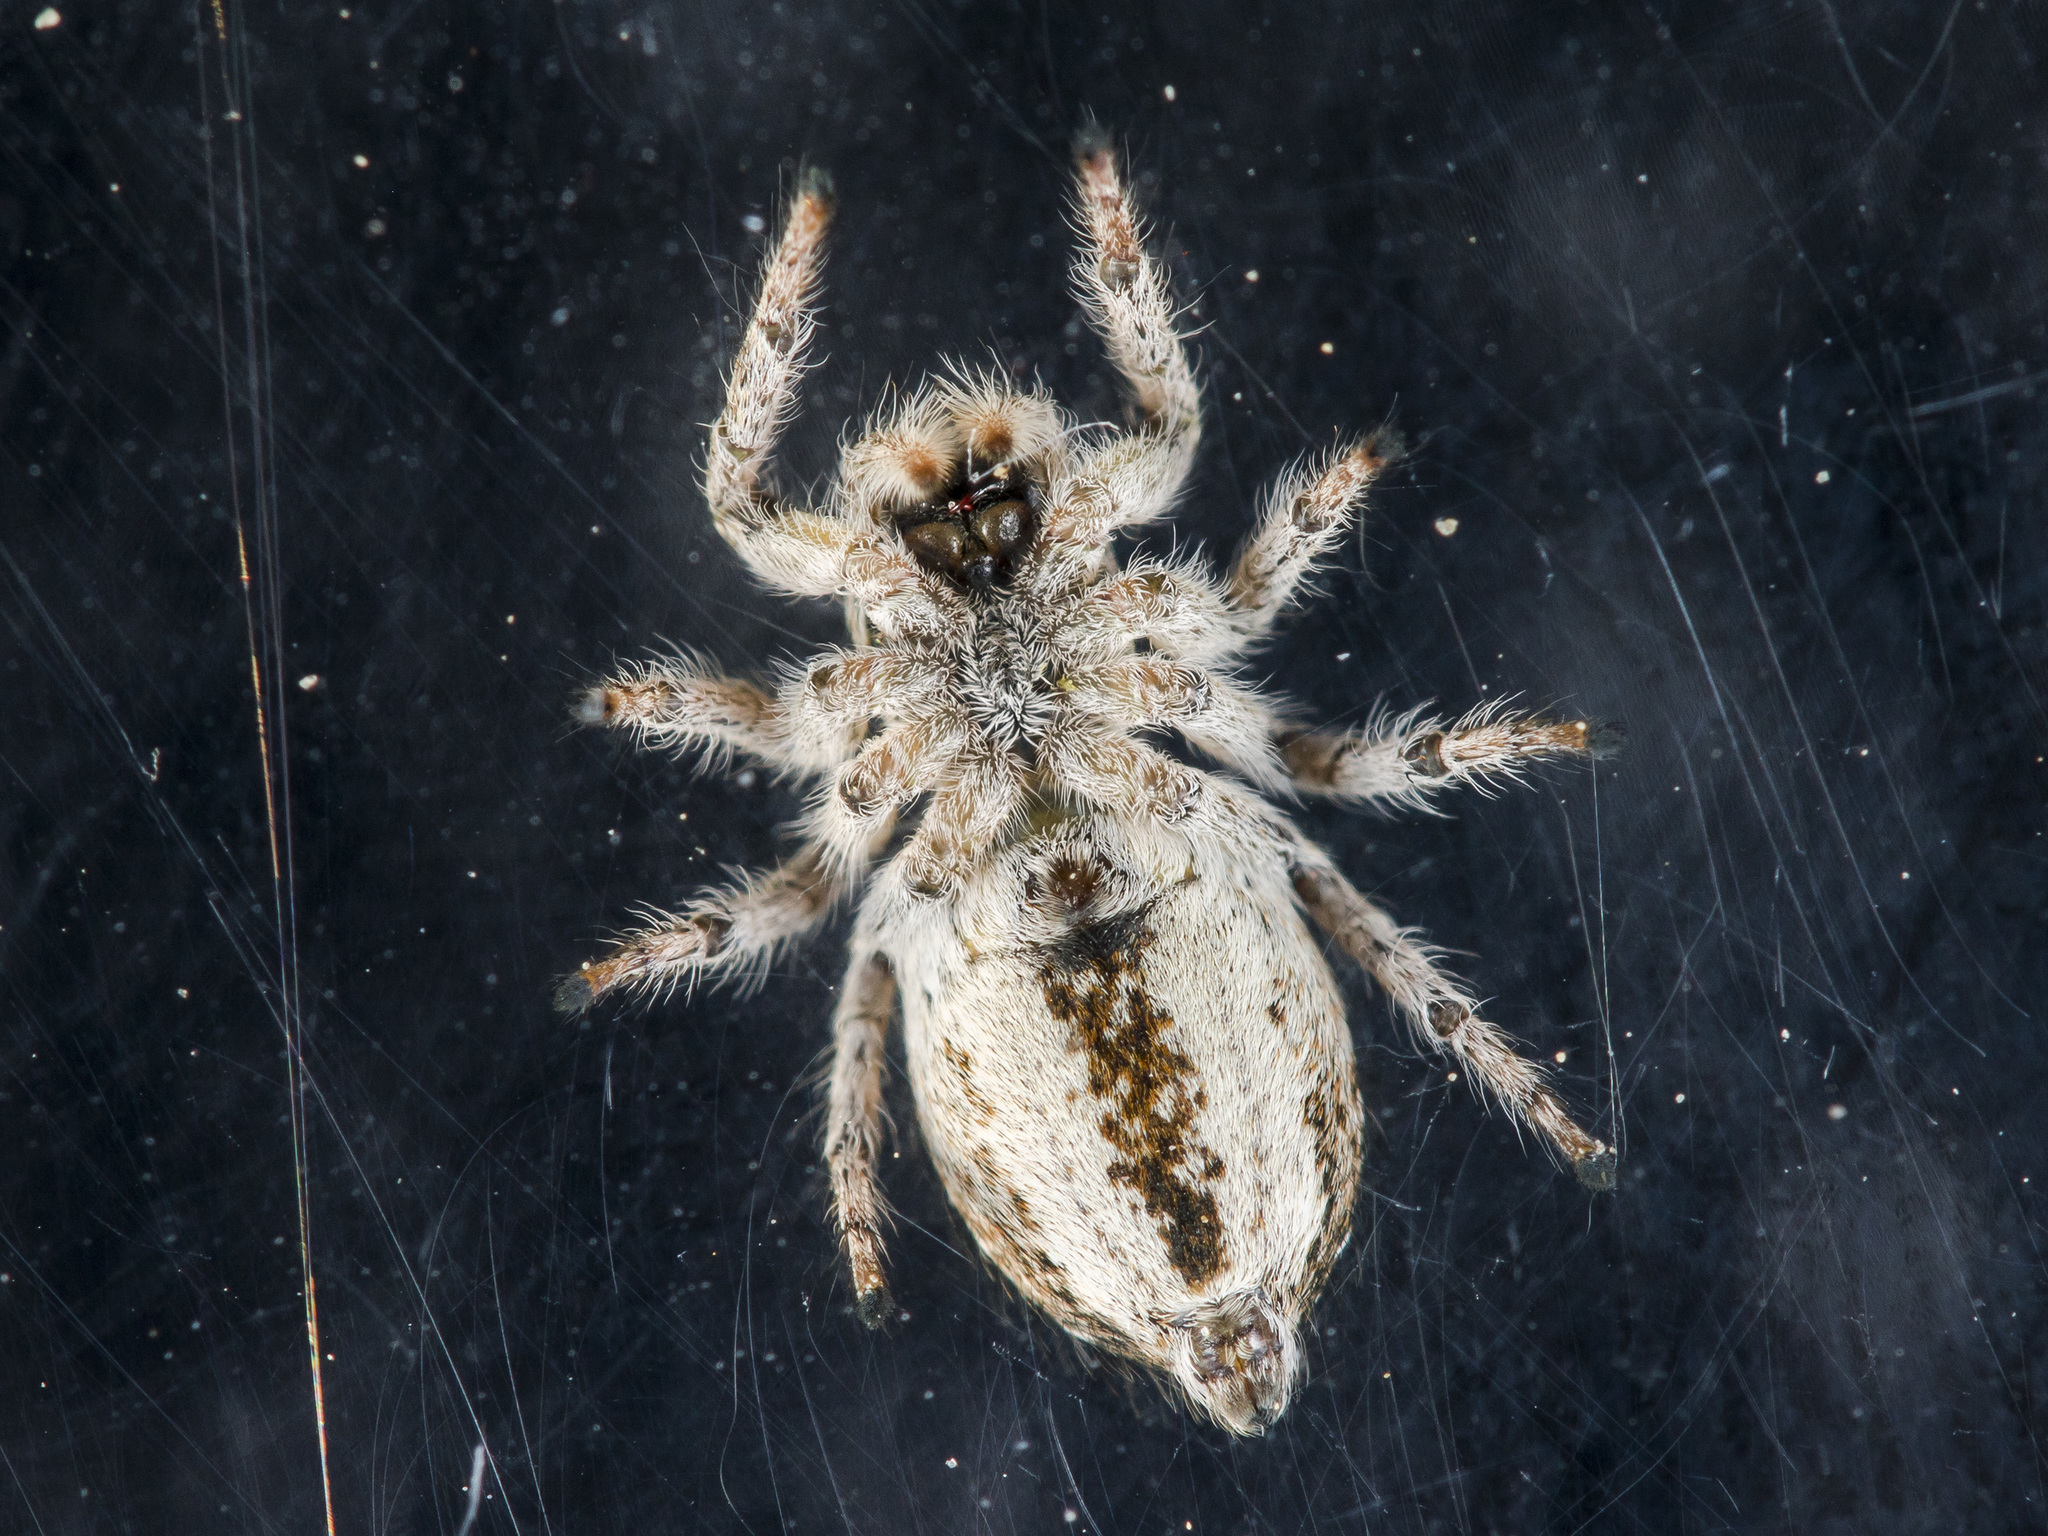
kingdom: Animalia
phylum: Arthropoda
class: Arachnida
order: Araneae
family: Salticidae
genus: Mogrus
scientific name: Mogrus antoninus
